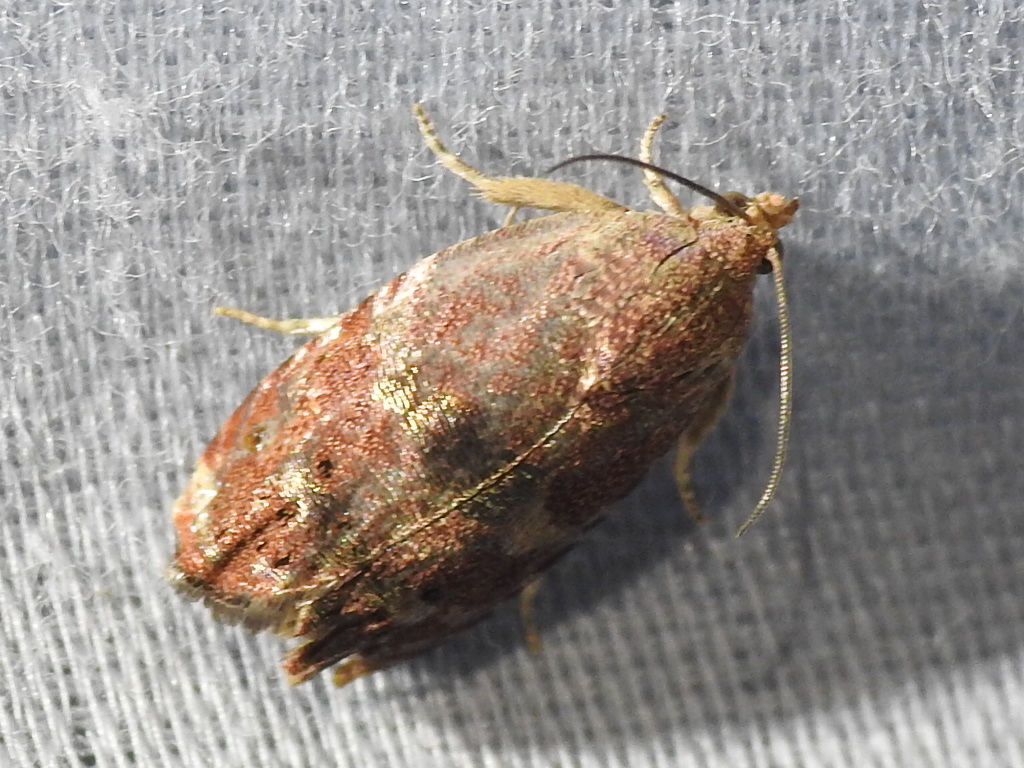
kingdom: Animalia
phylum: Arthropoda
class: Insecta
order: Lepidoptera
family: Tortricidae
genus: Cydia
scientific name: Cydia latiferreana
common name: Filbertworm moth
